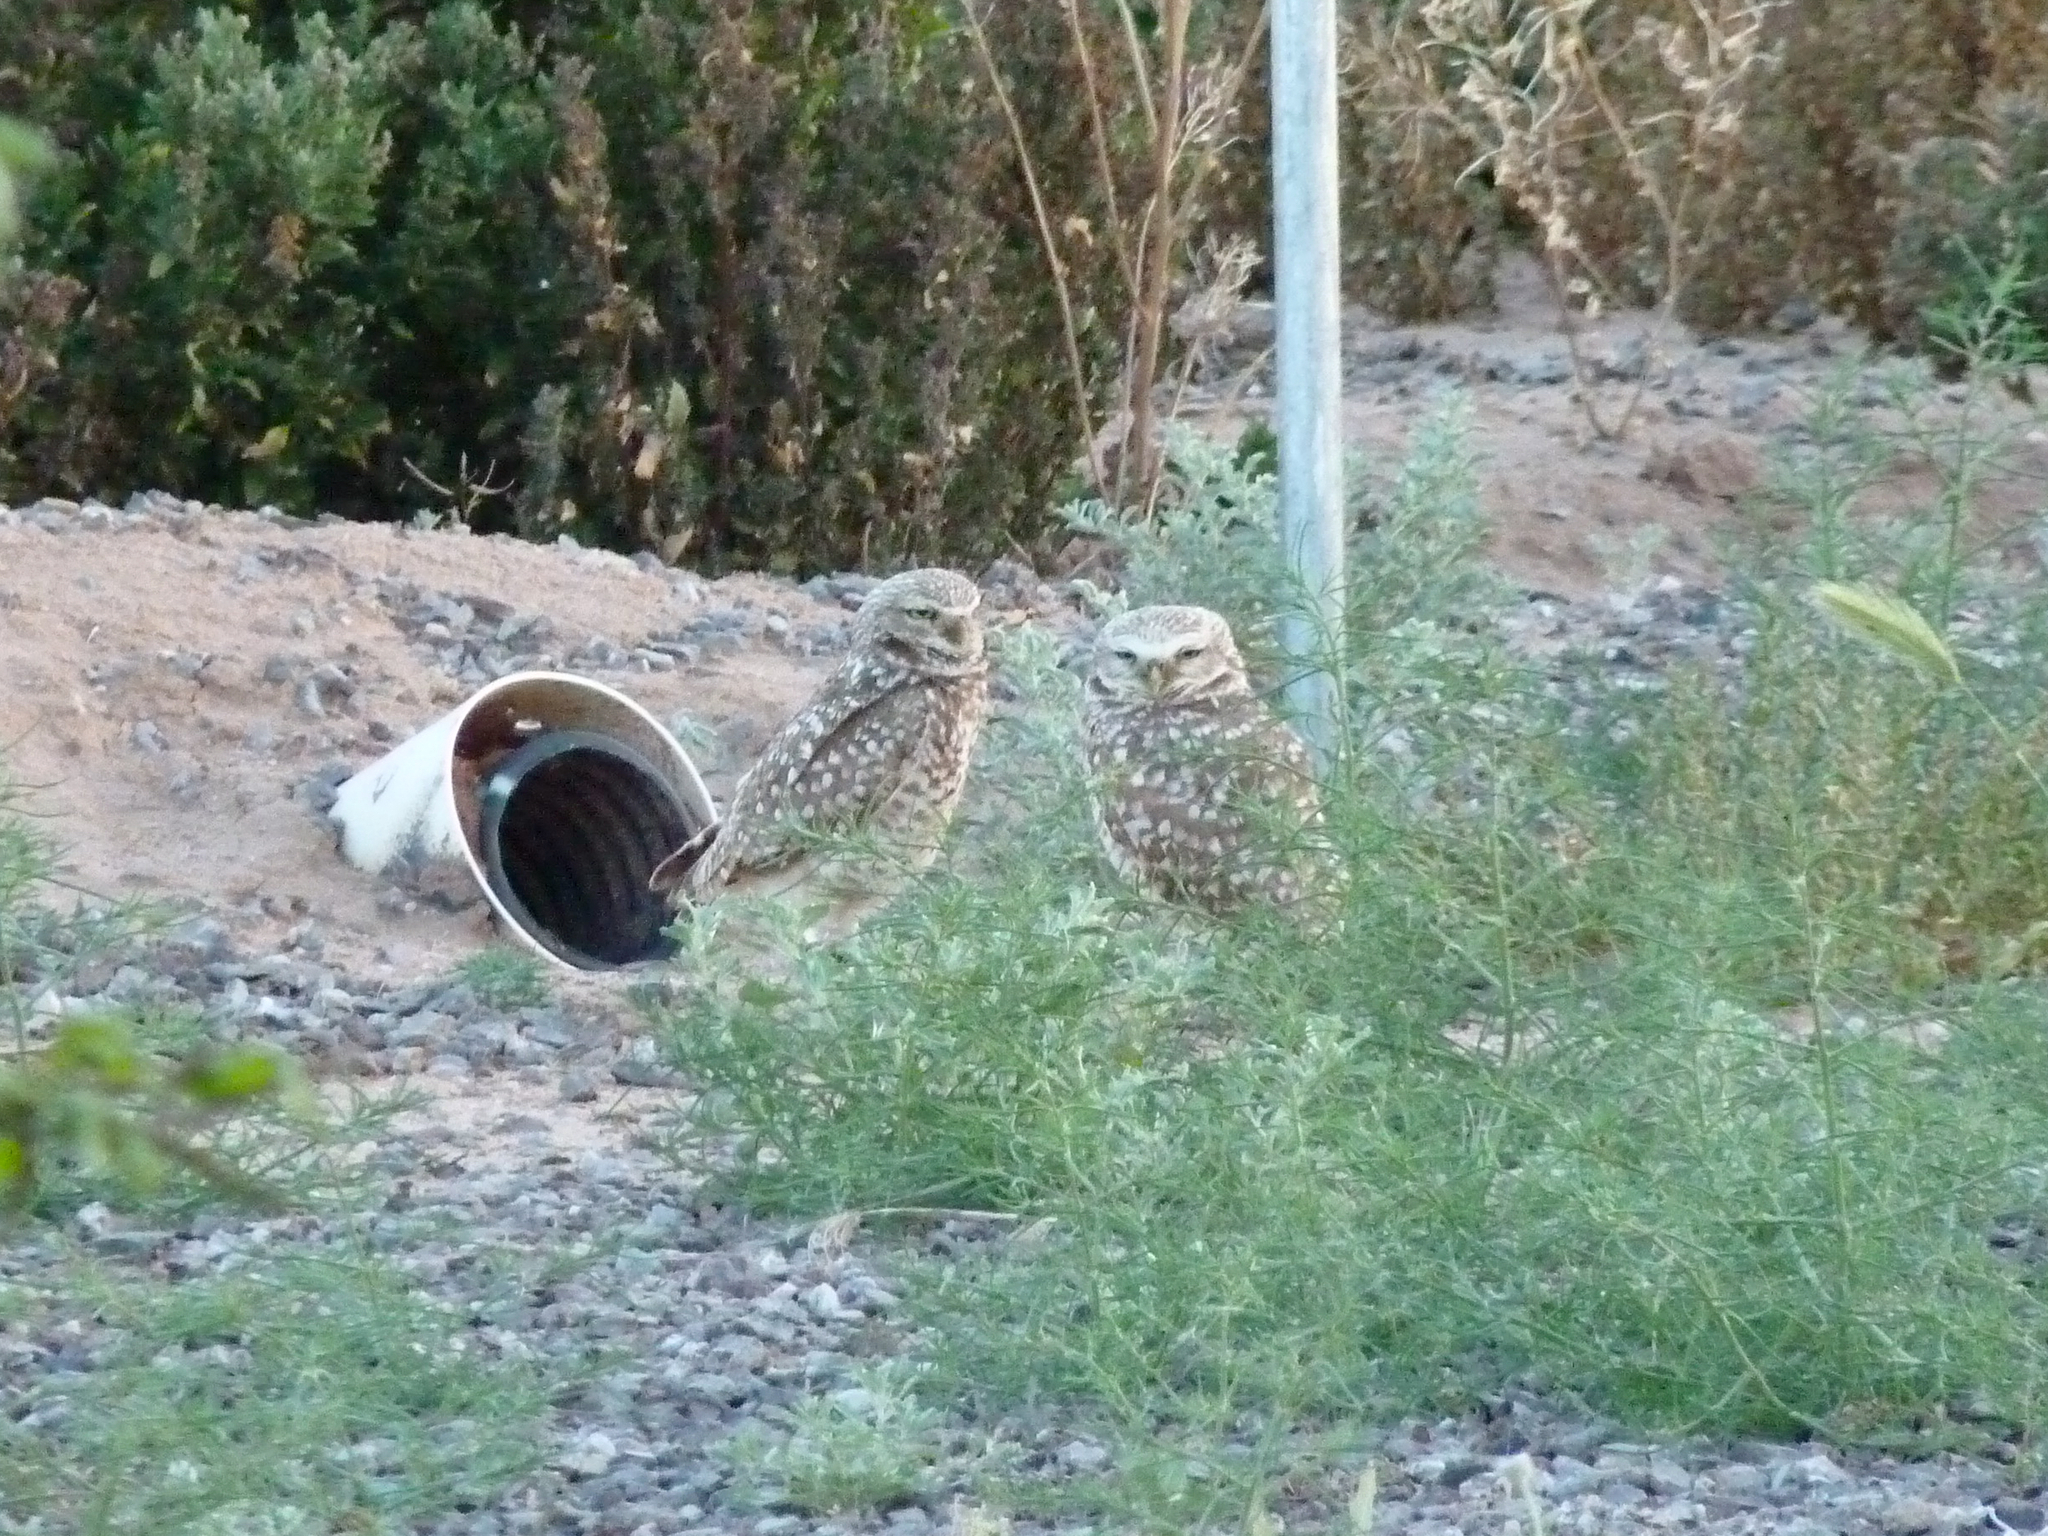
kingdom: Animalia
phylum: Chordata
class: Aves
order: Strigiformes
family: Strigidae
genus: Athene
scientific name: Athene cunicularia
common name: Burrowing owl
